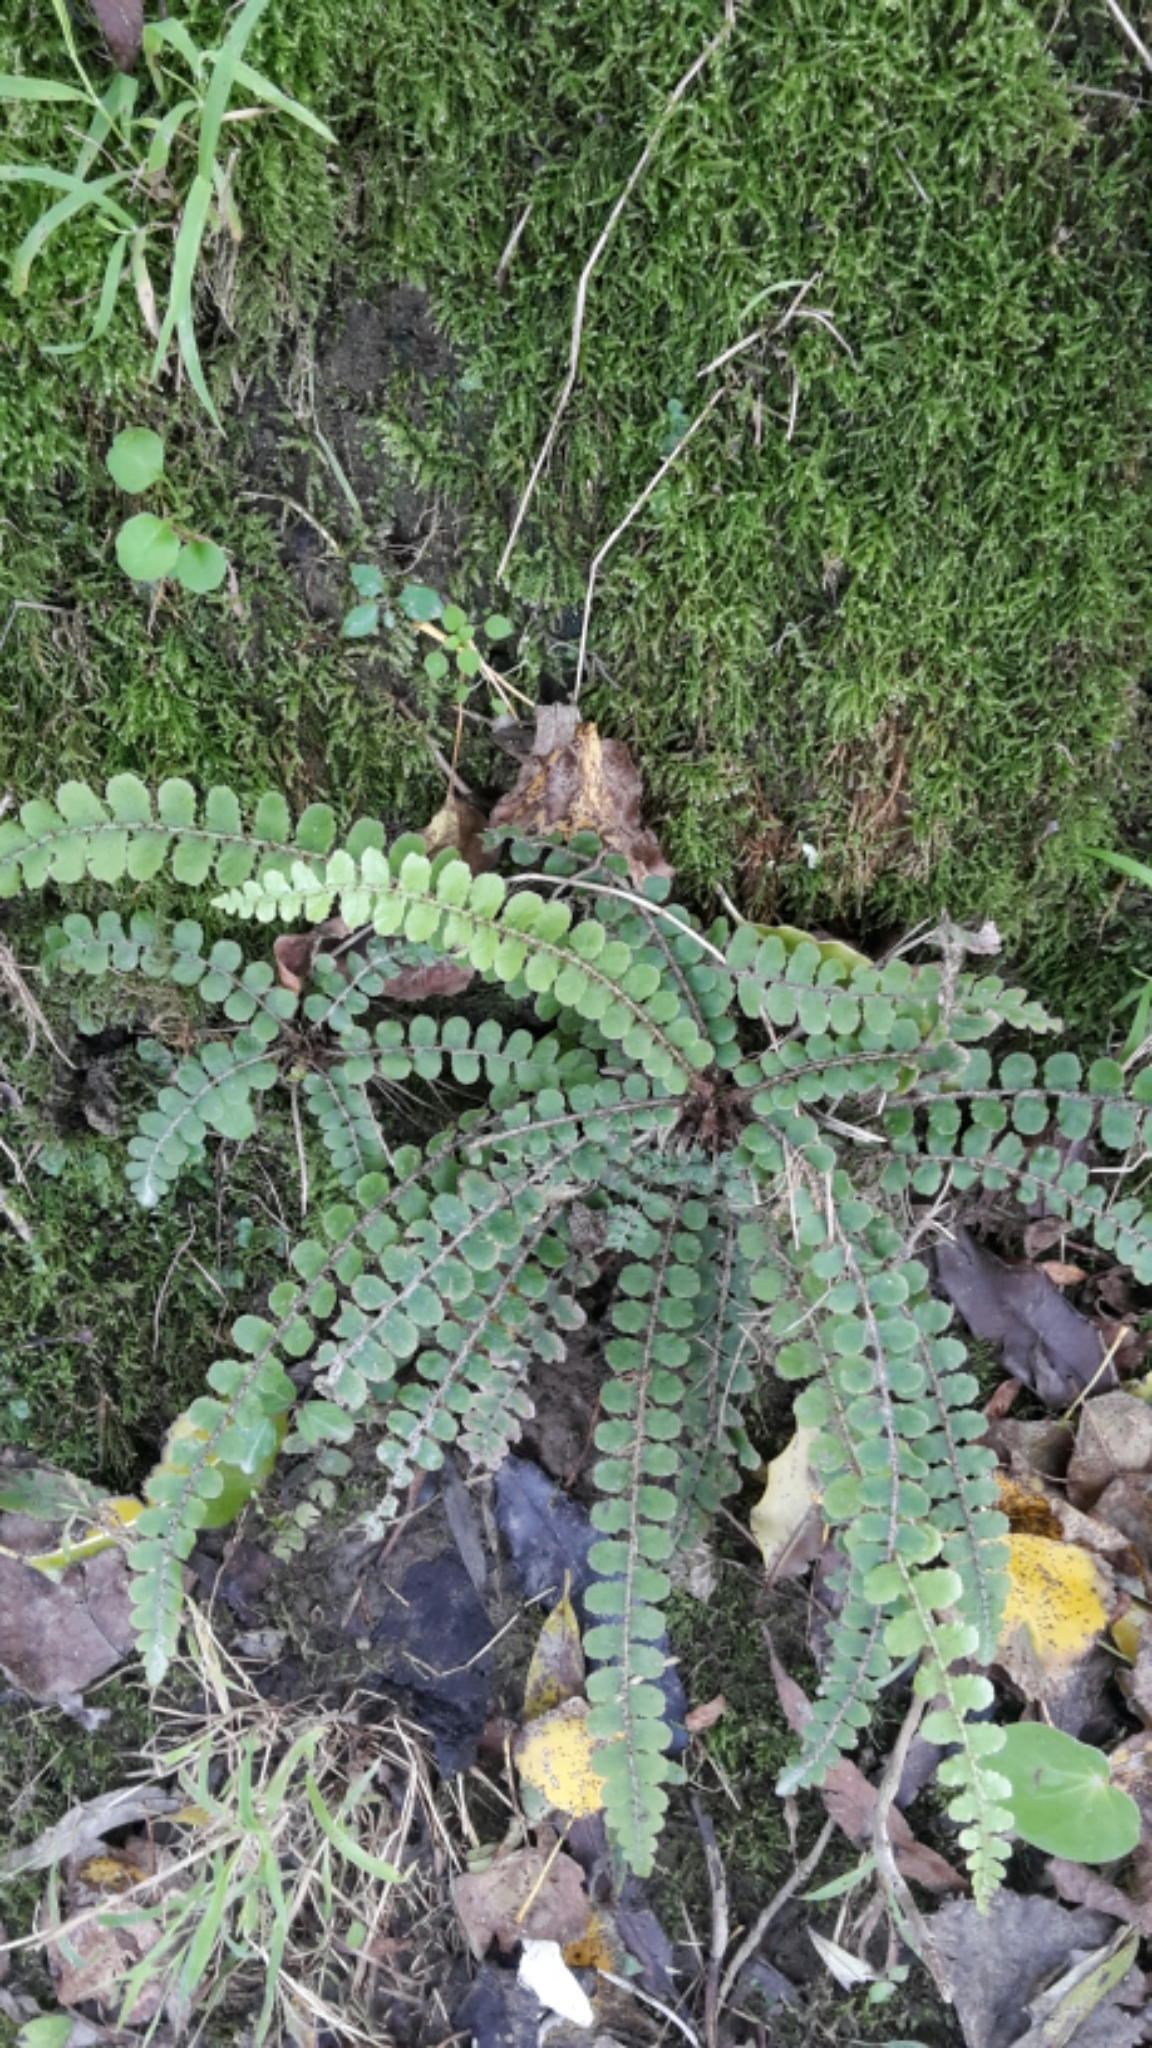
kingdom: Plantae
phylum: Tracheophyta
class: Polypodiopsida
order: Polypodiales
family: Blechnaceae
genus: Cranfillia
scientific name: Cranfillia fluviatilis
